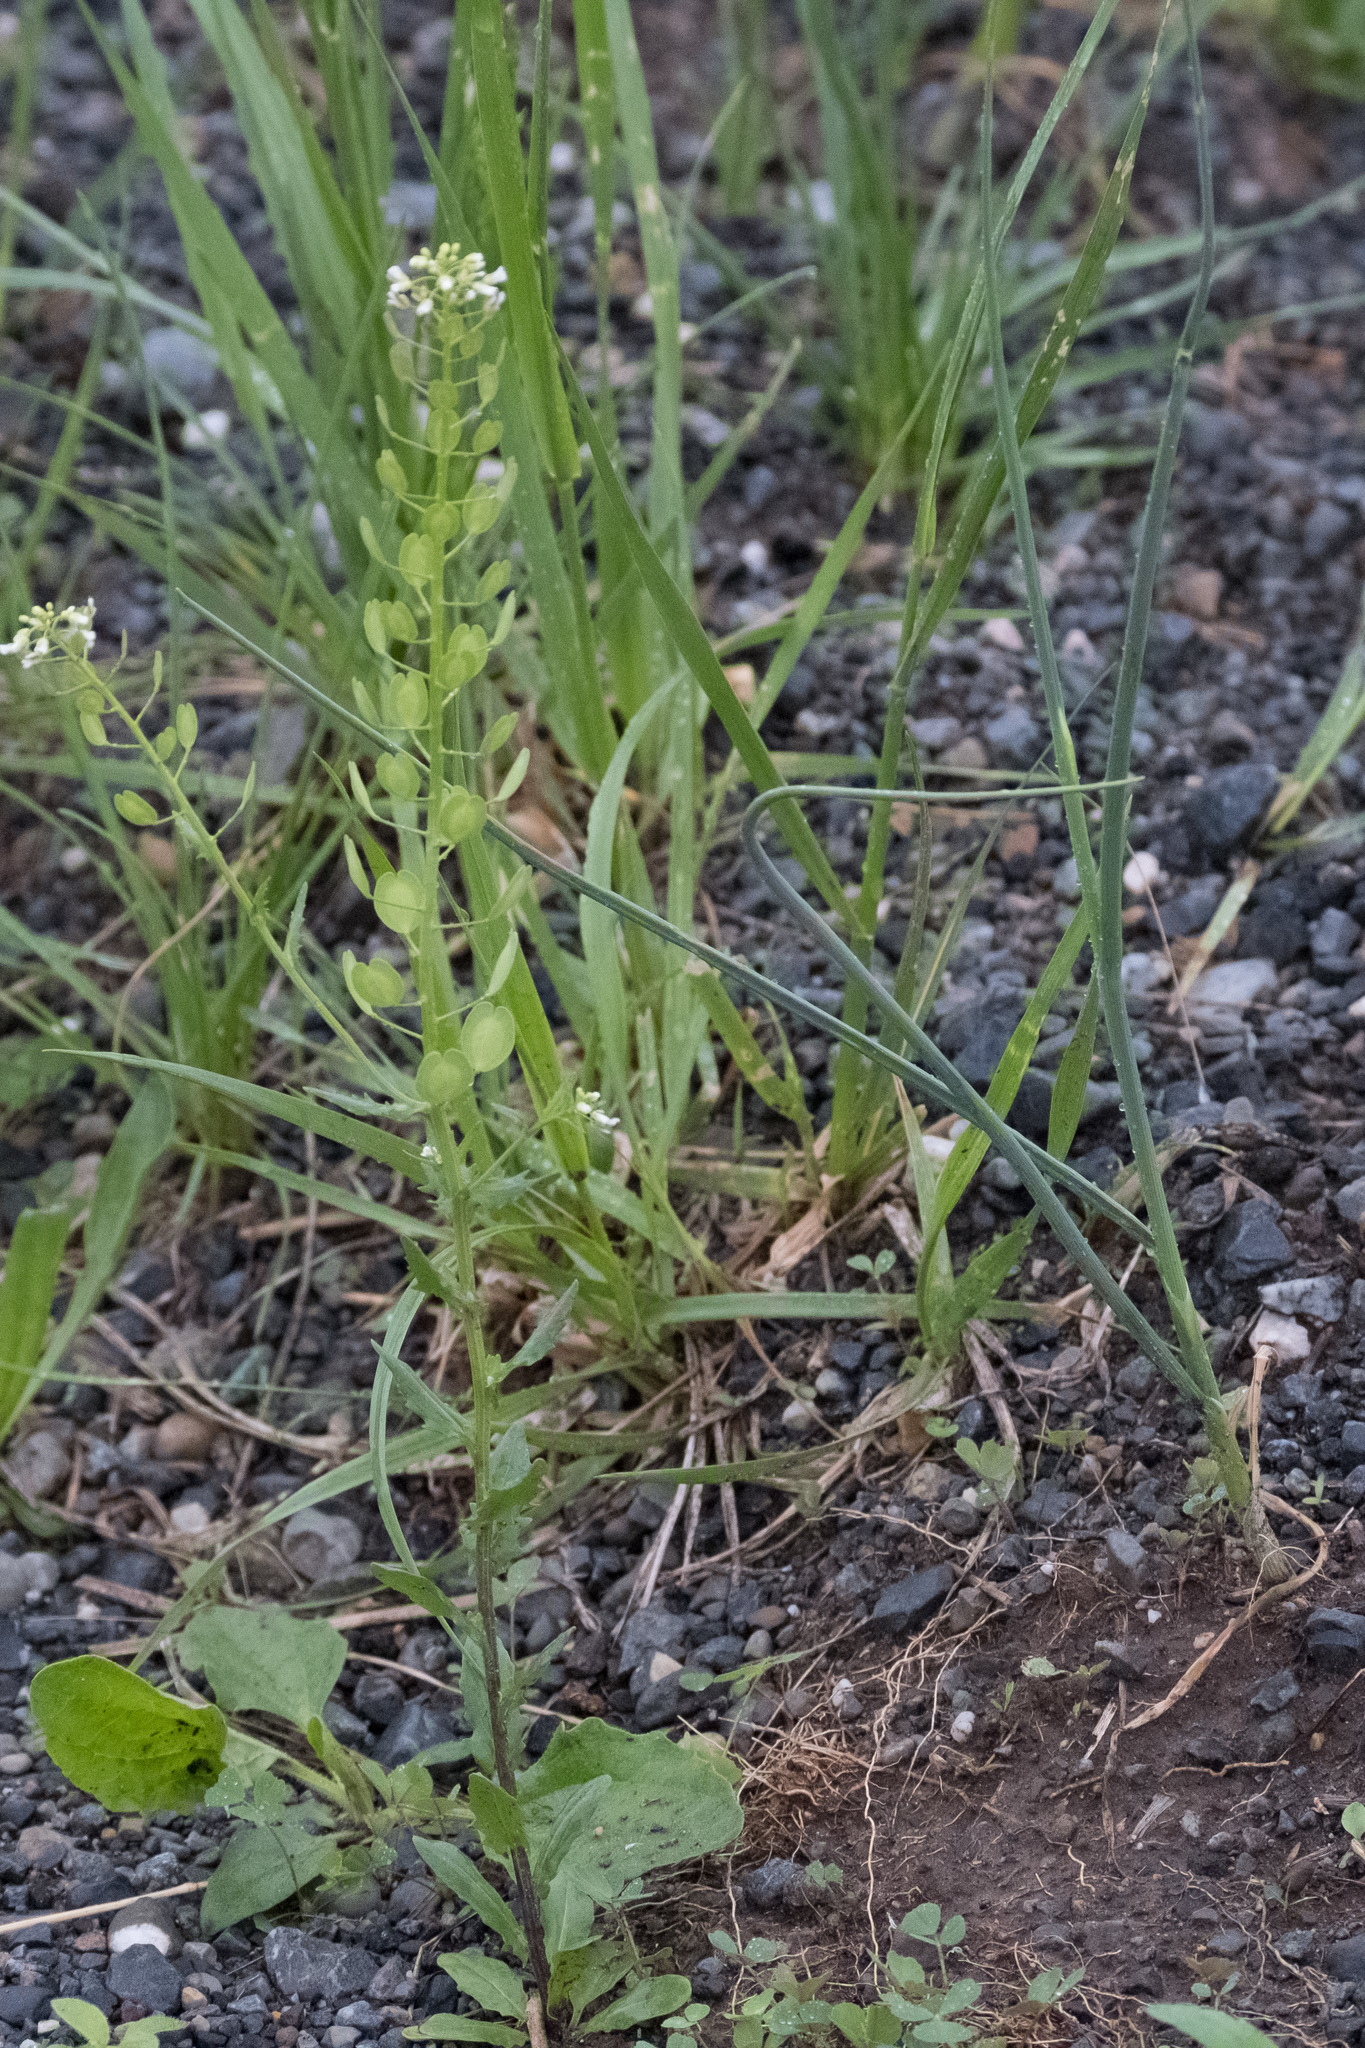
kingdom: Plantae
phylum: Tracheophyta
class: Magnoliopsida
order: Brassicales
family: Brassicaceae
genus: Thlaspi
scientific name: Thlaspi arvense
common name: Field pennycress
